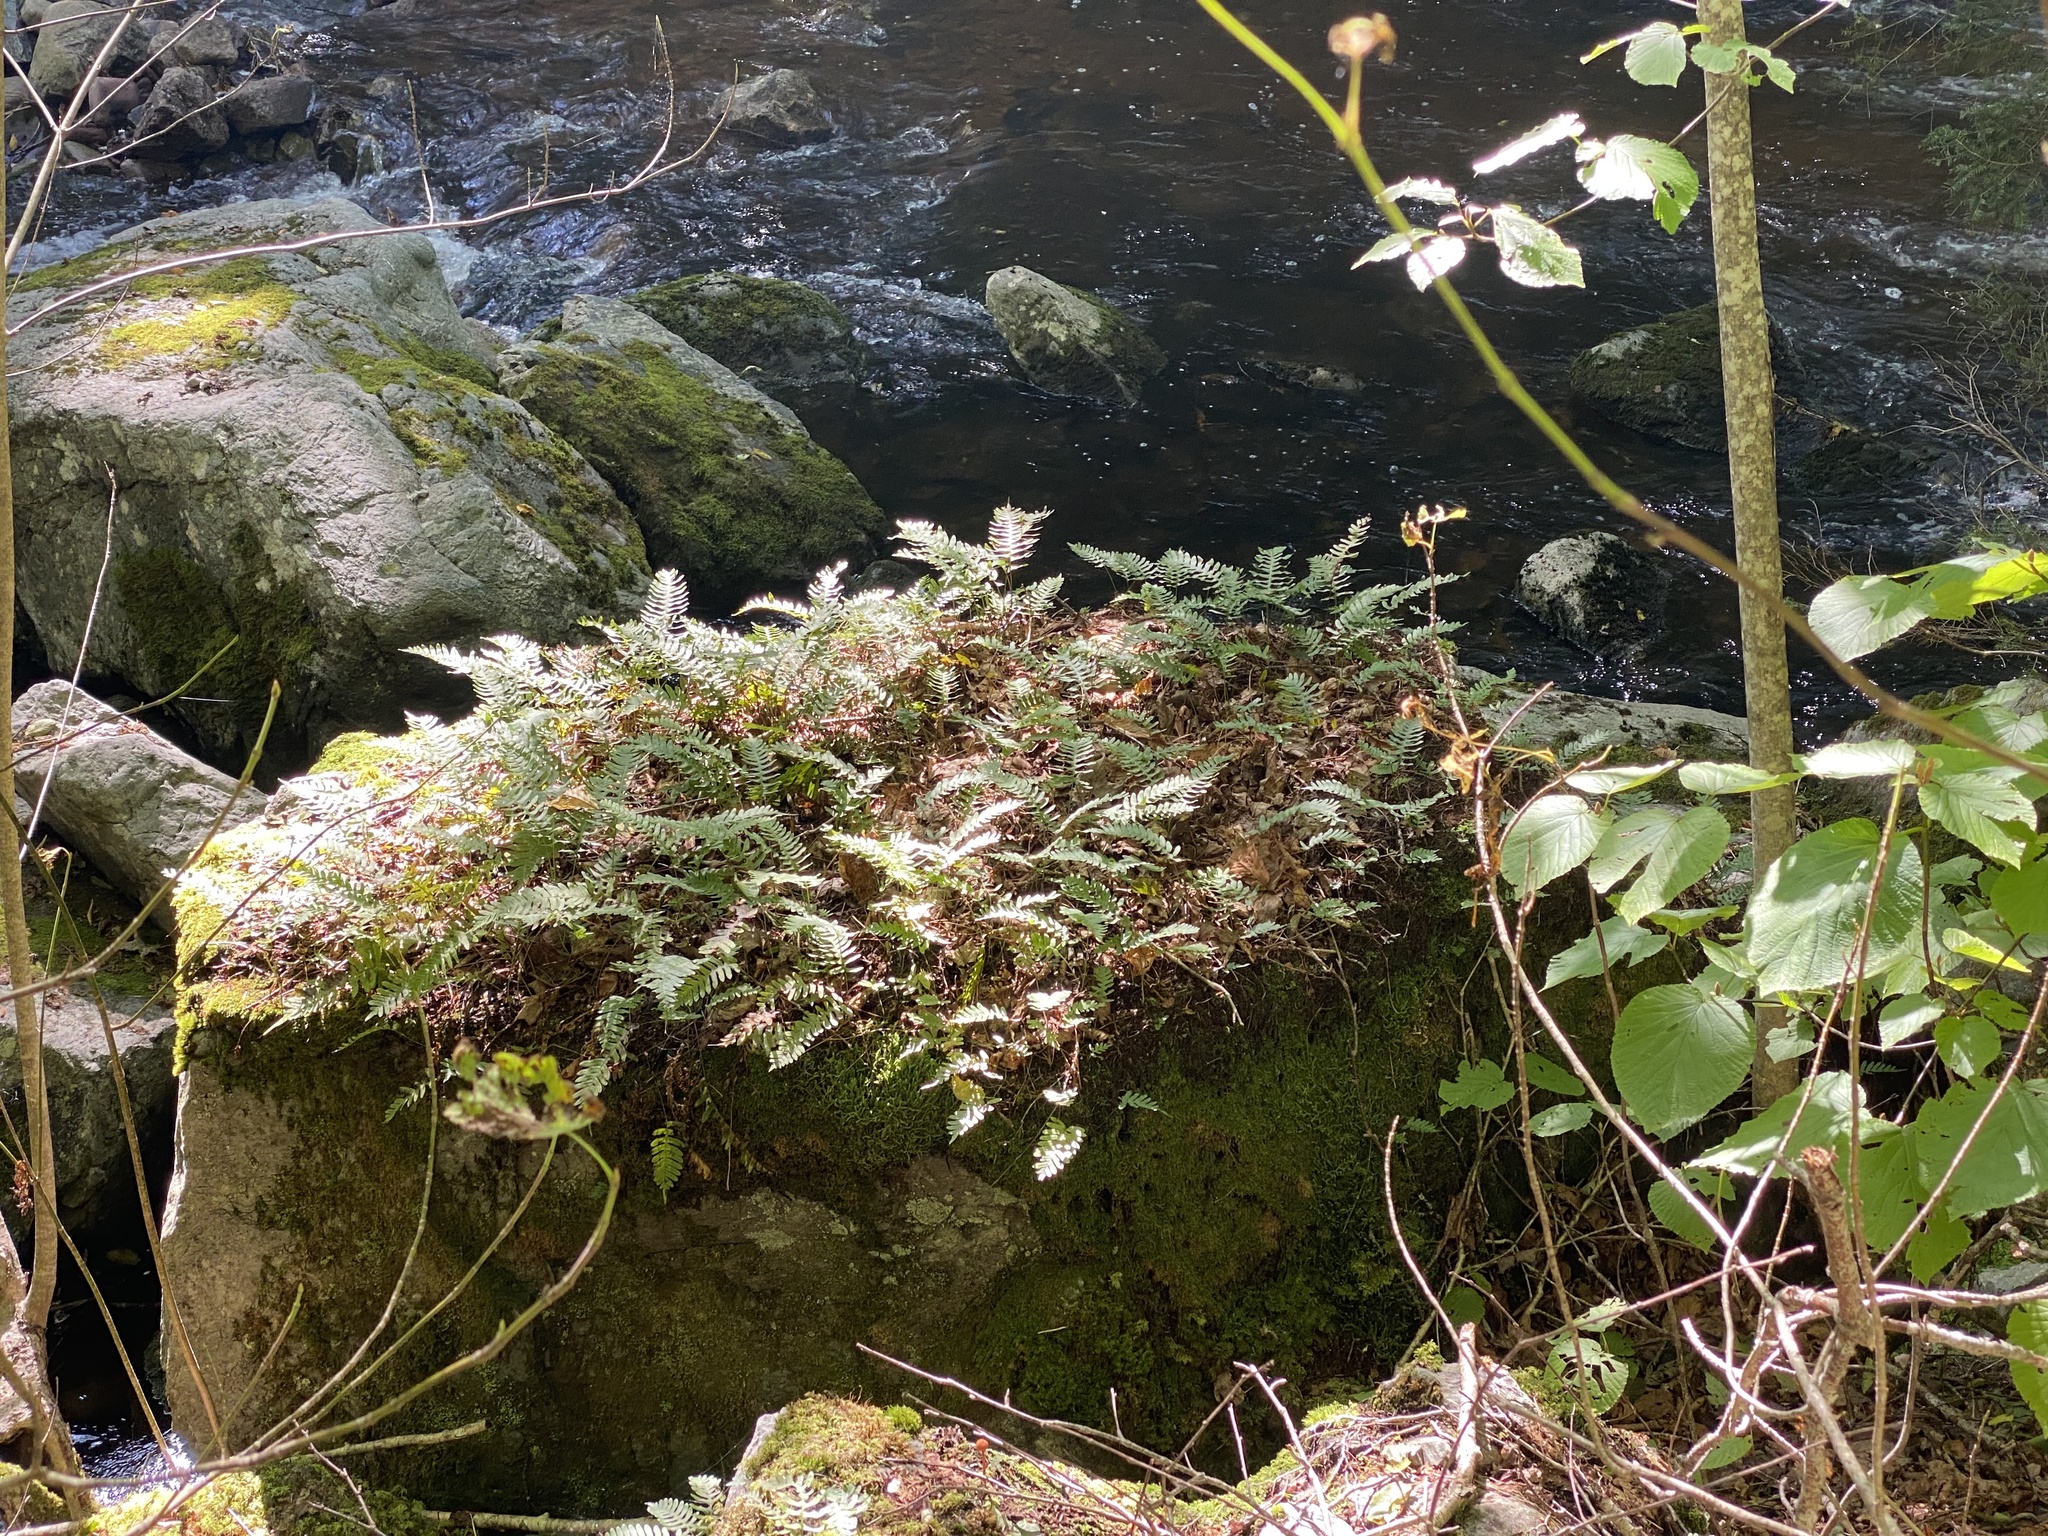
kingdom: Plantae
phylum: Tracheophyta
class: Polypodiopsida
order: Polypodiales
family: Polypodiaceae
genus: Polypodium
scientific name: Polypodium virginianum
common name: American wall fern
